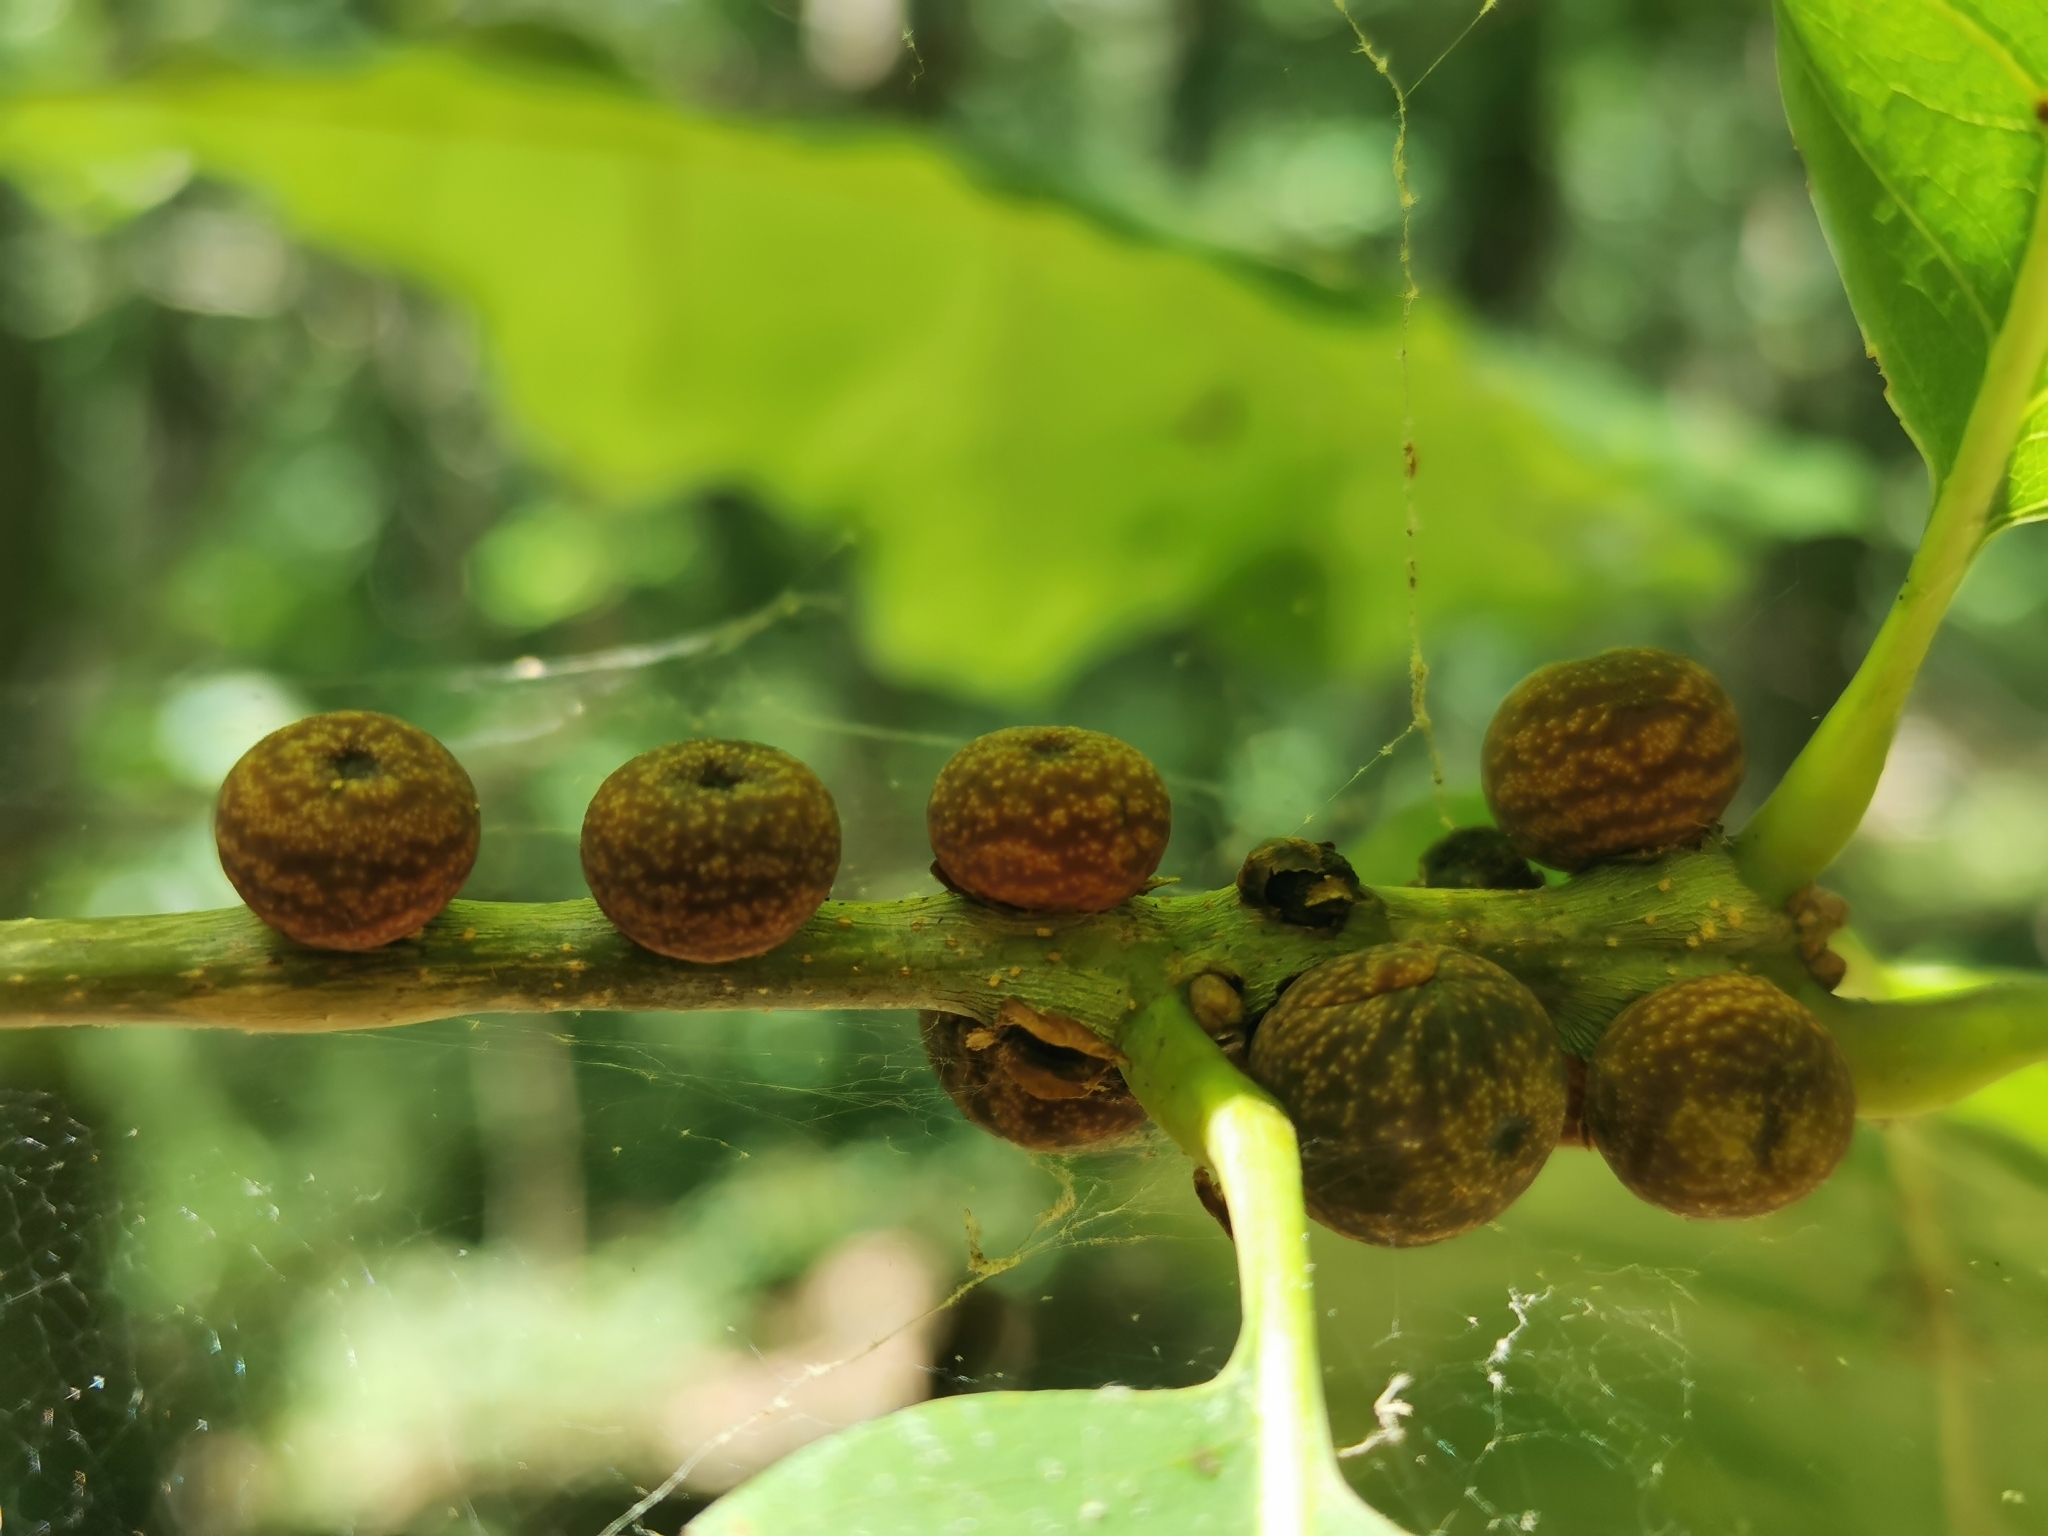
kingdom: Animalia
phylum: Arthropoda
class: Insecta
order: Hymenoptera
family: Cynipidae
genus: Kokkocynips
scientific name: Kokkocynips imbricariae
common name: Banded bullet gall wasp
